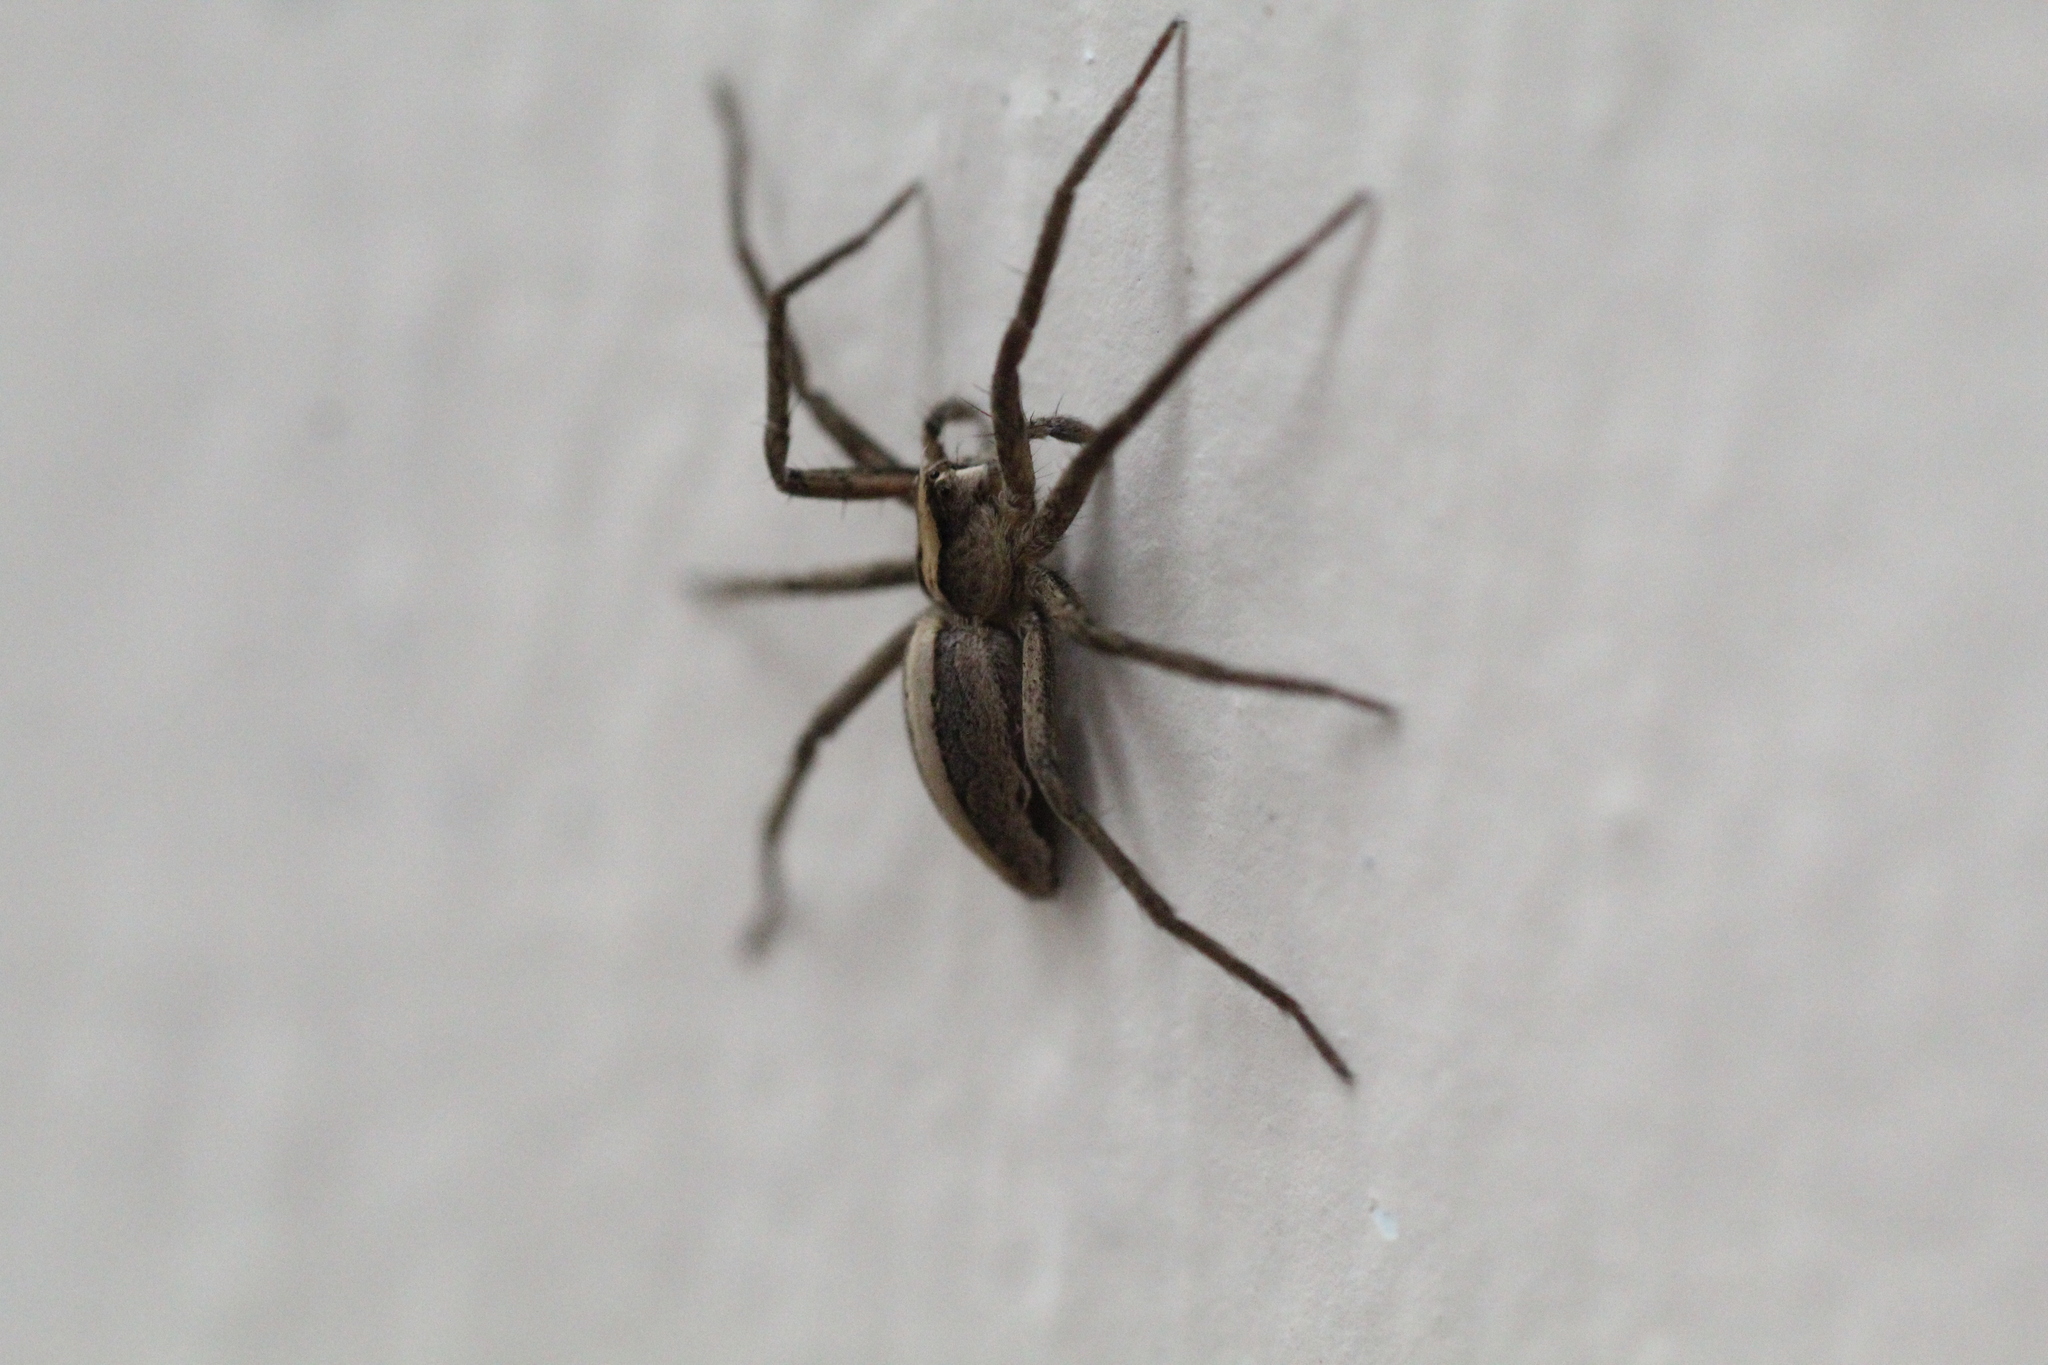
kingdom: Animalia
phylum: Arthropoda
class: Arachnida
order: Araneae
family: Pisauridae
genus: Pisaura
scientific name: Pisaura mirabilis
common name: Tent spider
